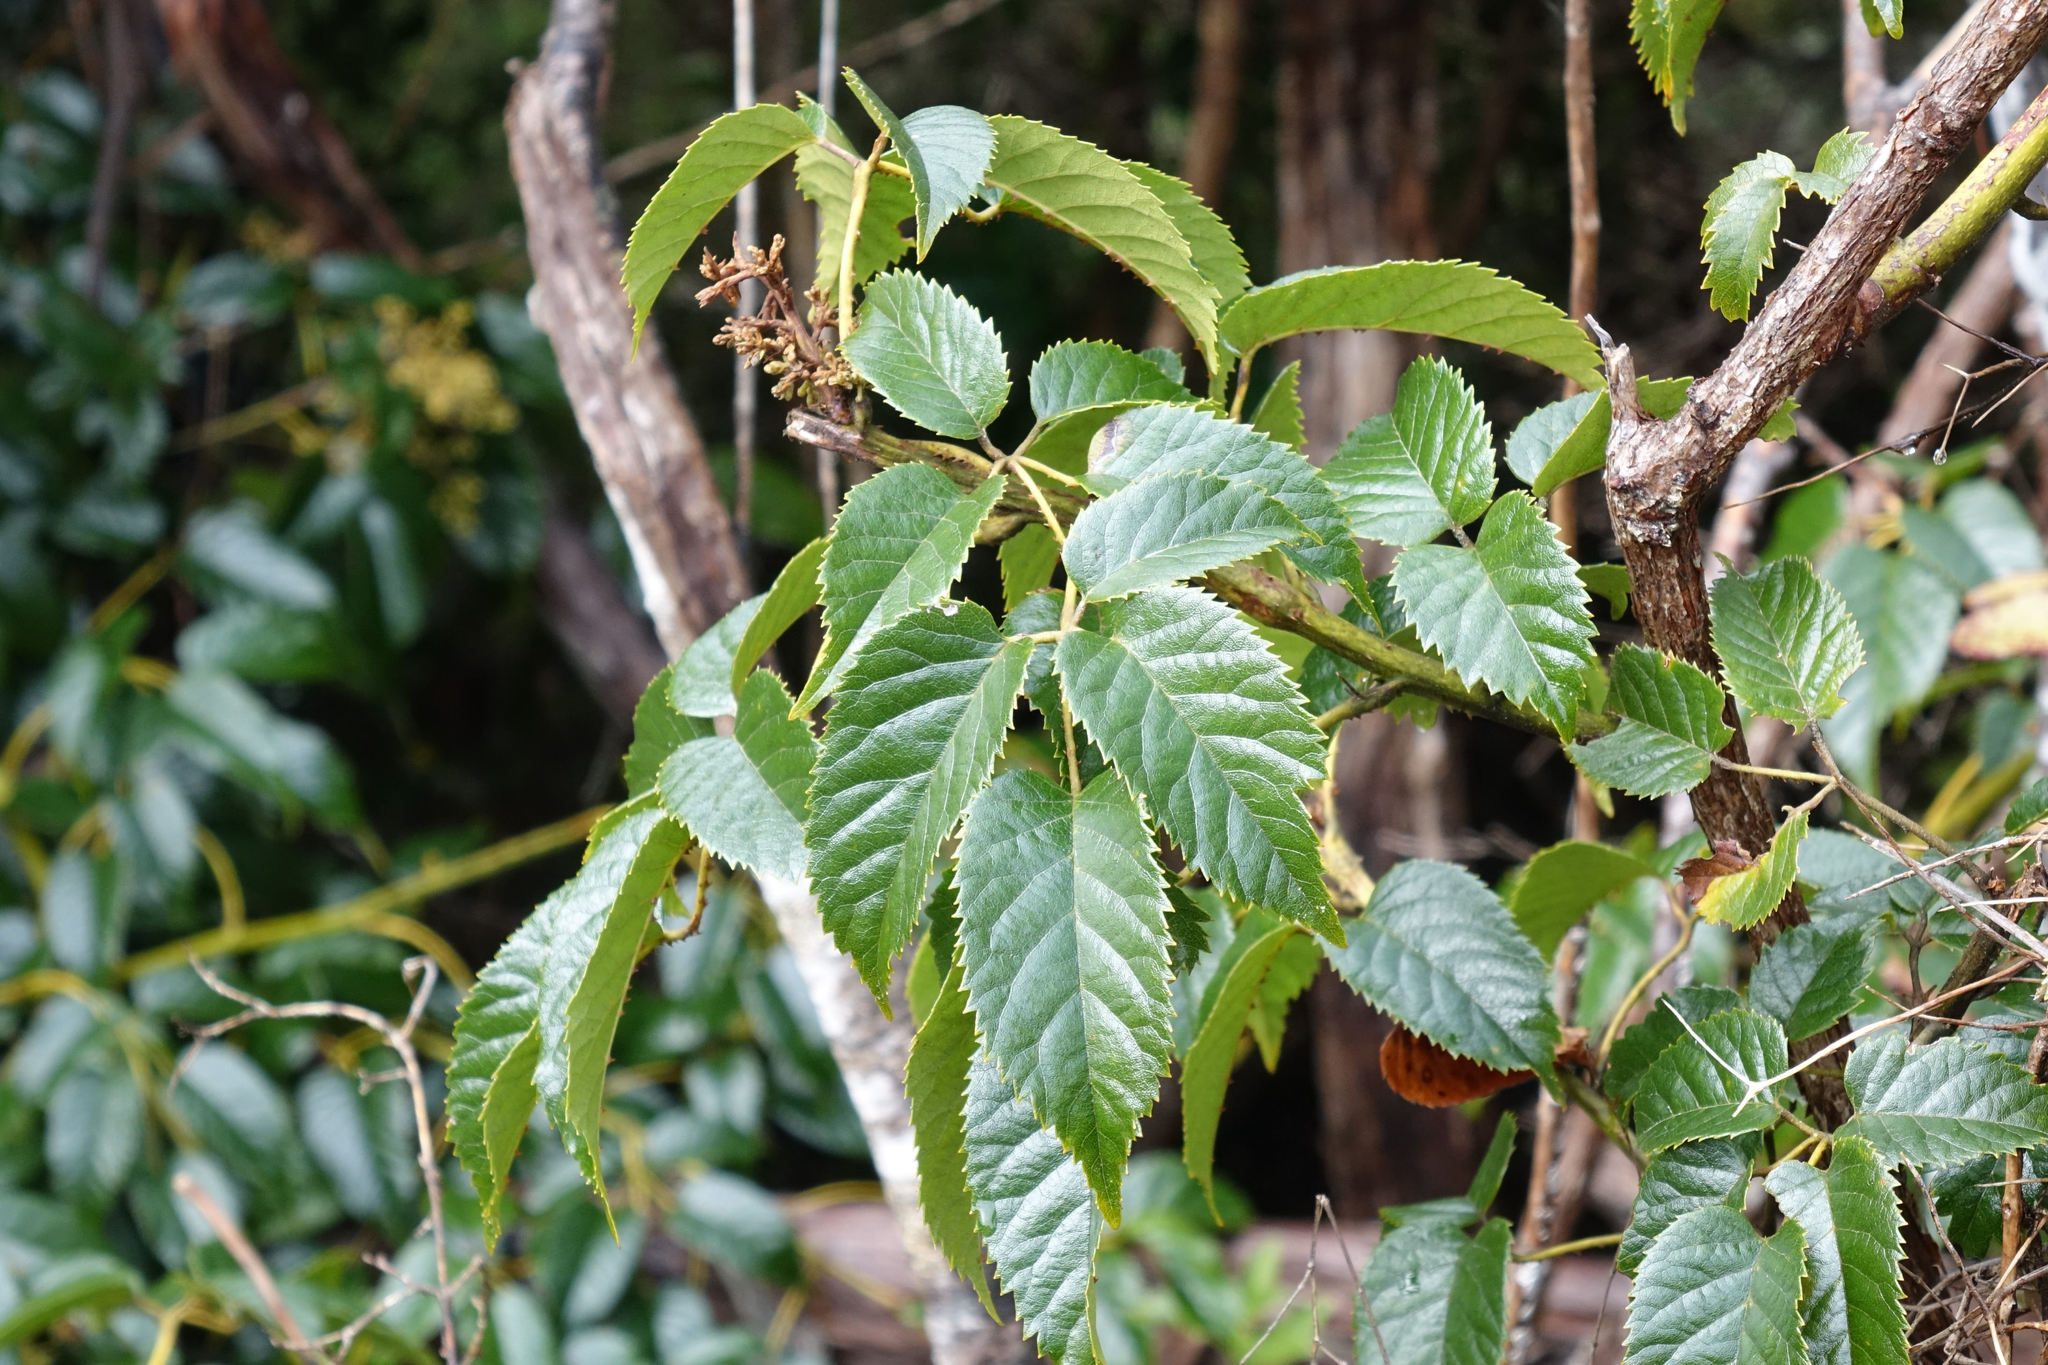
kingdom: Plantae
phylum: Tracheophyta
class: Magnoliopsida
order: Rosales
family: Rosaceae
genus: Rubus
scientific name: Rubus cissoides
